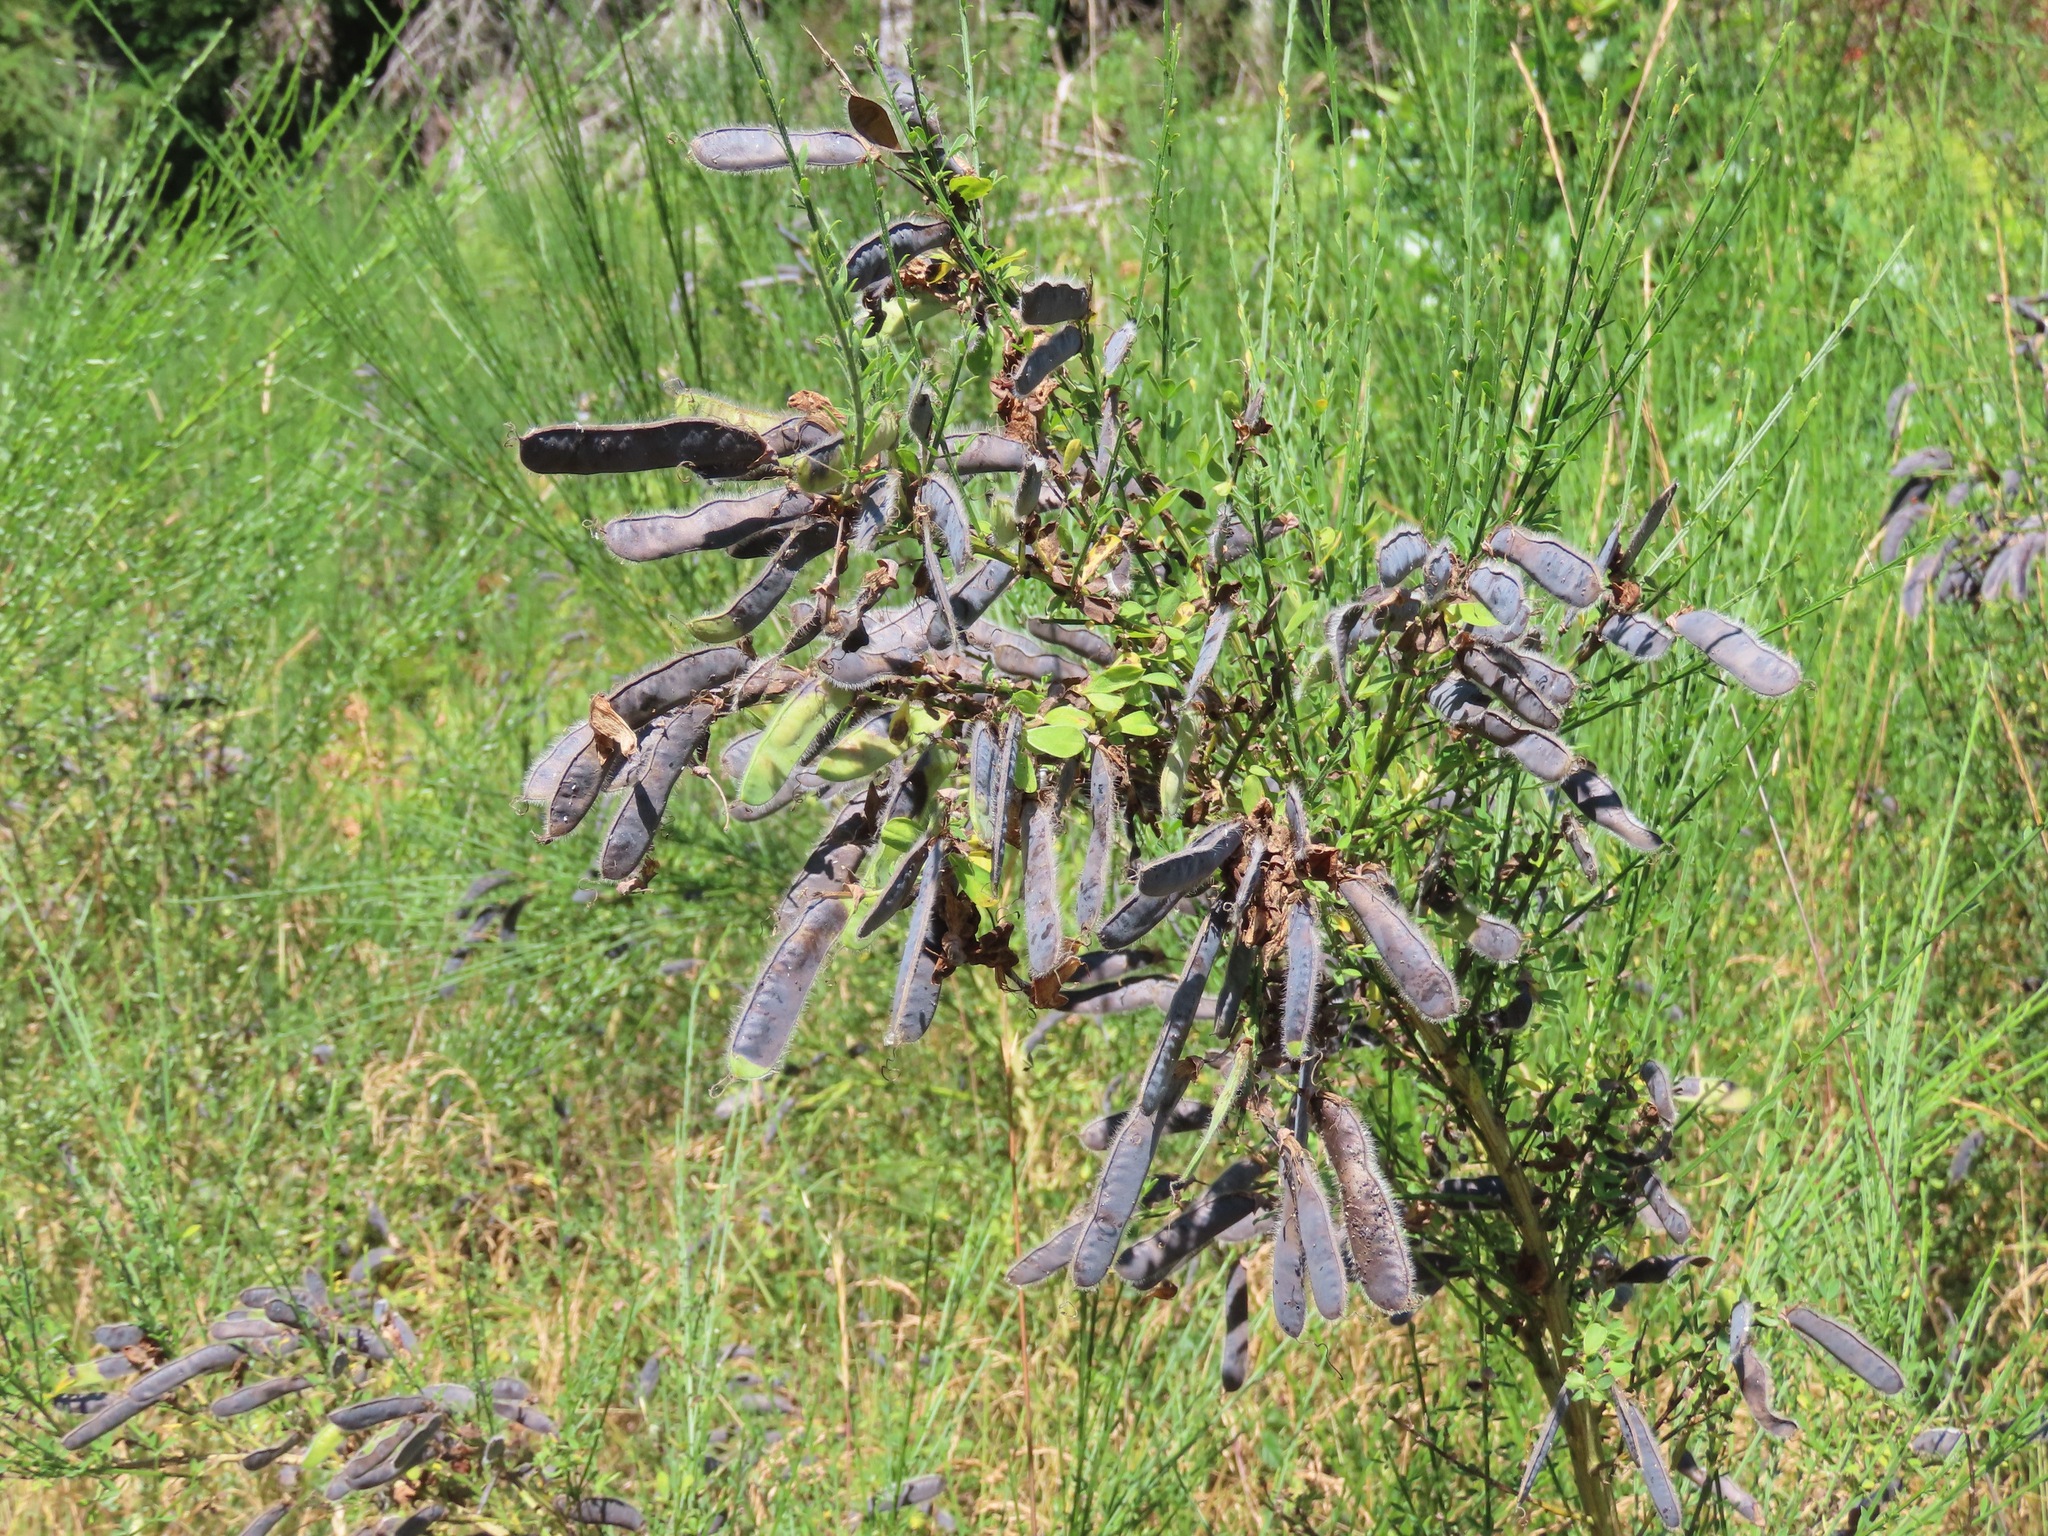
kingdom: Plantae
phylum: Tracheophyta
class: Magnoliopsida
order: Fabales
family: Fabaceae
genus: Cytisus
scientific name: Cytisus scoparius
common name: Scotch broom
